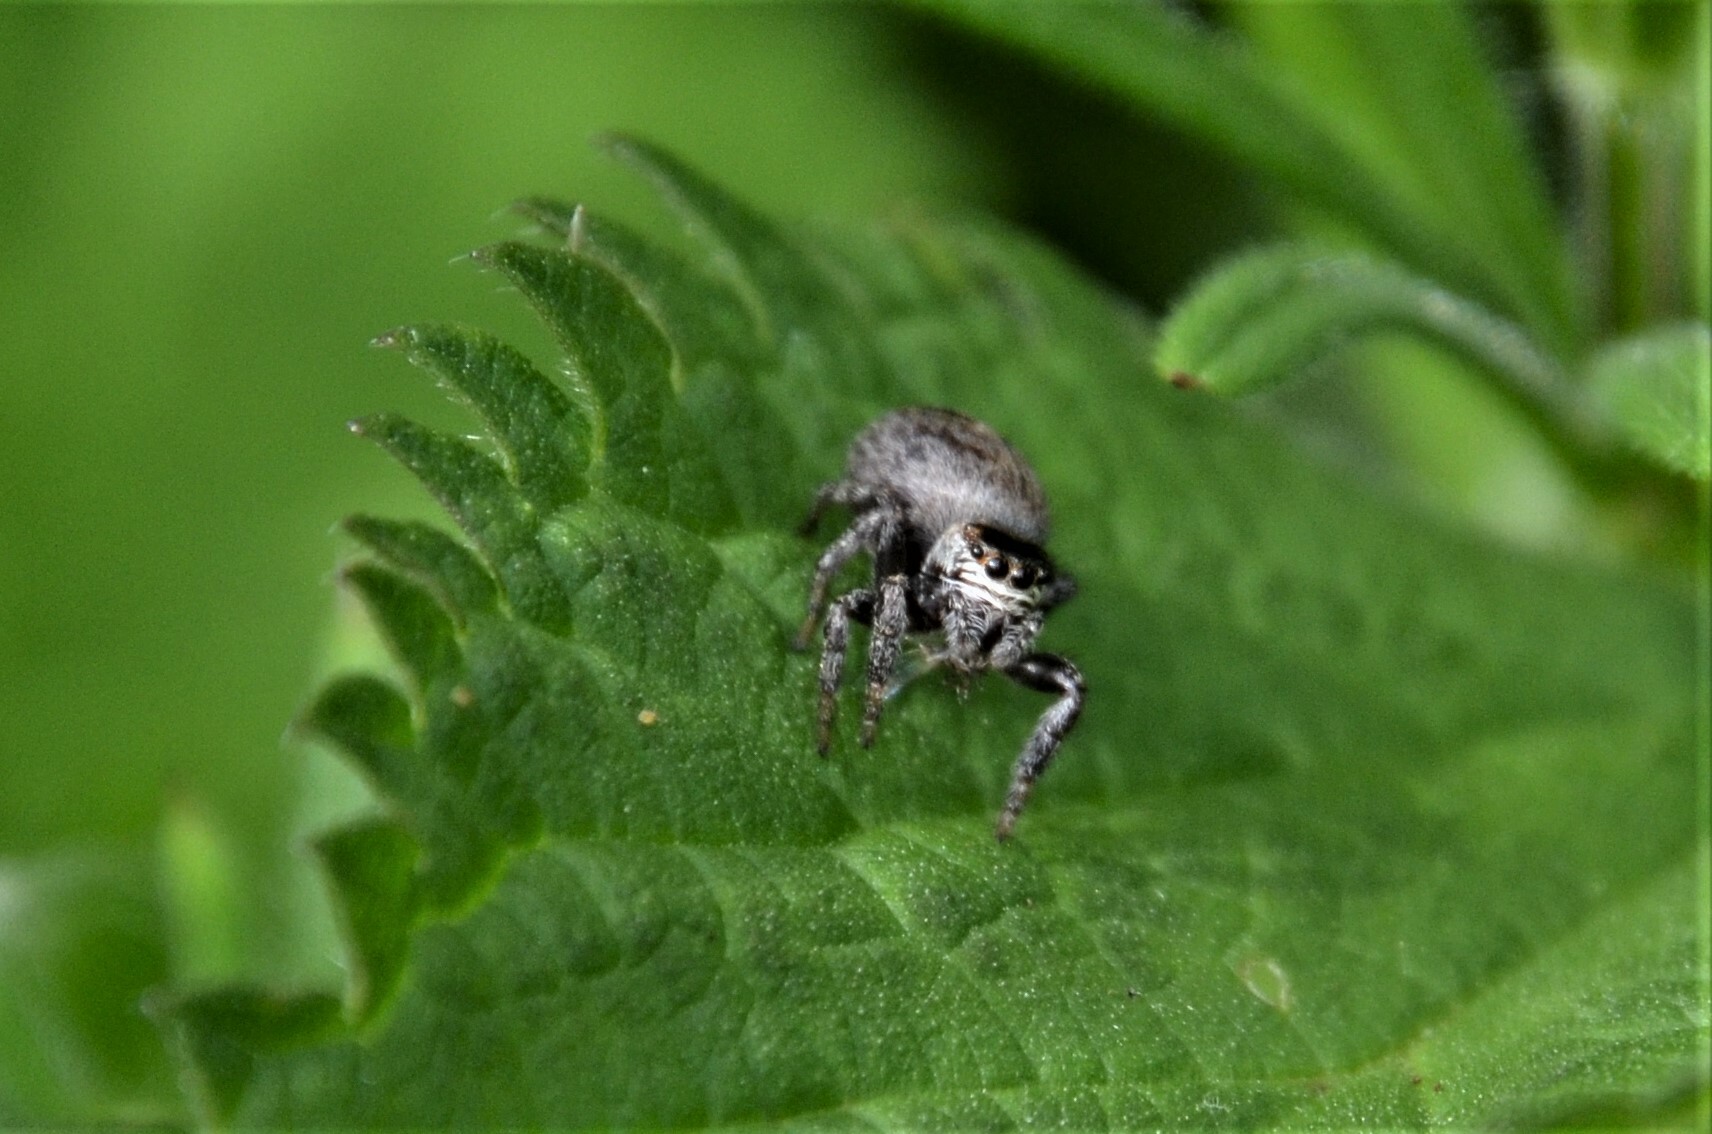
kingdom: Animalia
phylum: Arthropoda
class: Arachnida
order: Araneae
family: Salticidae
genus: Evarcha
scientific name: Evarcha arcuata
